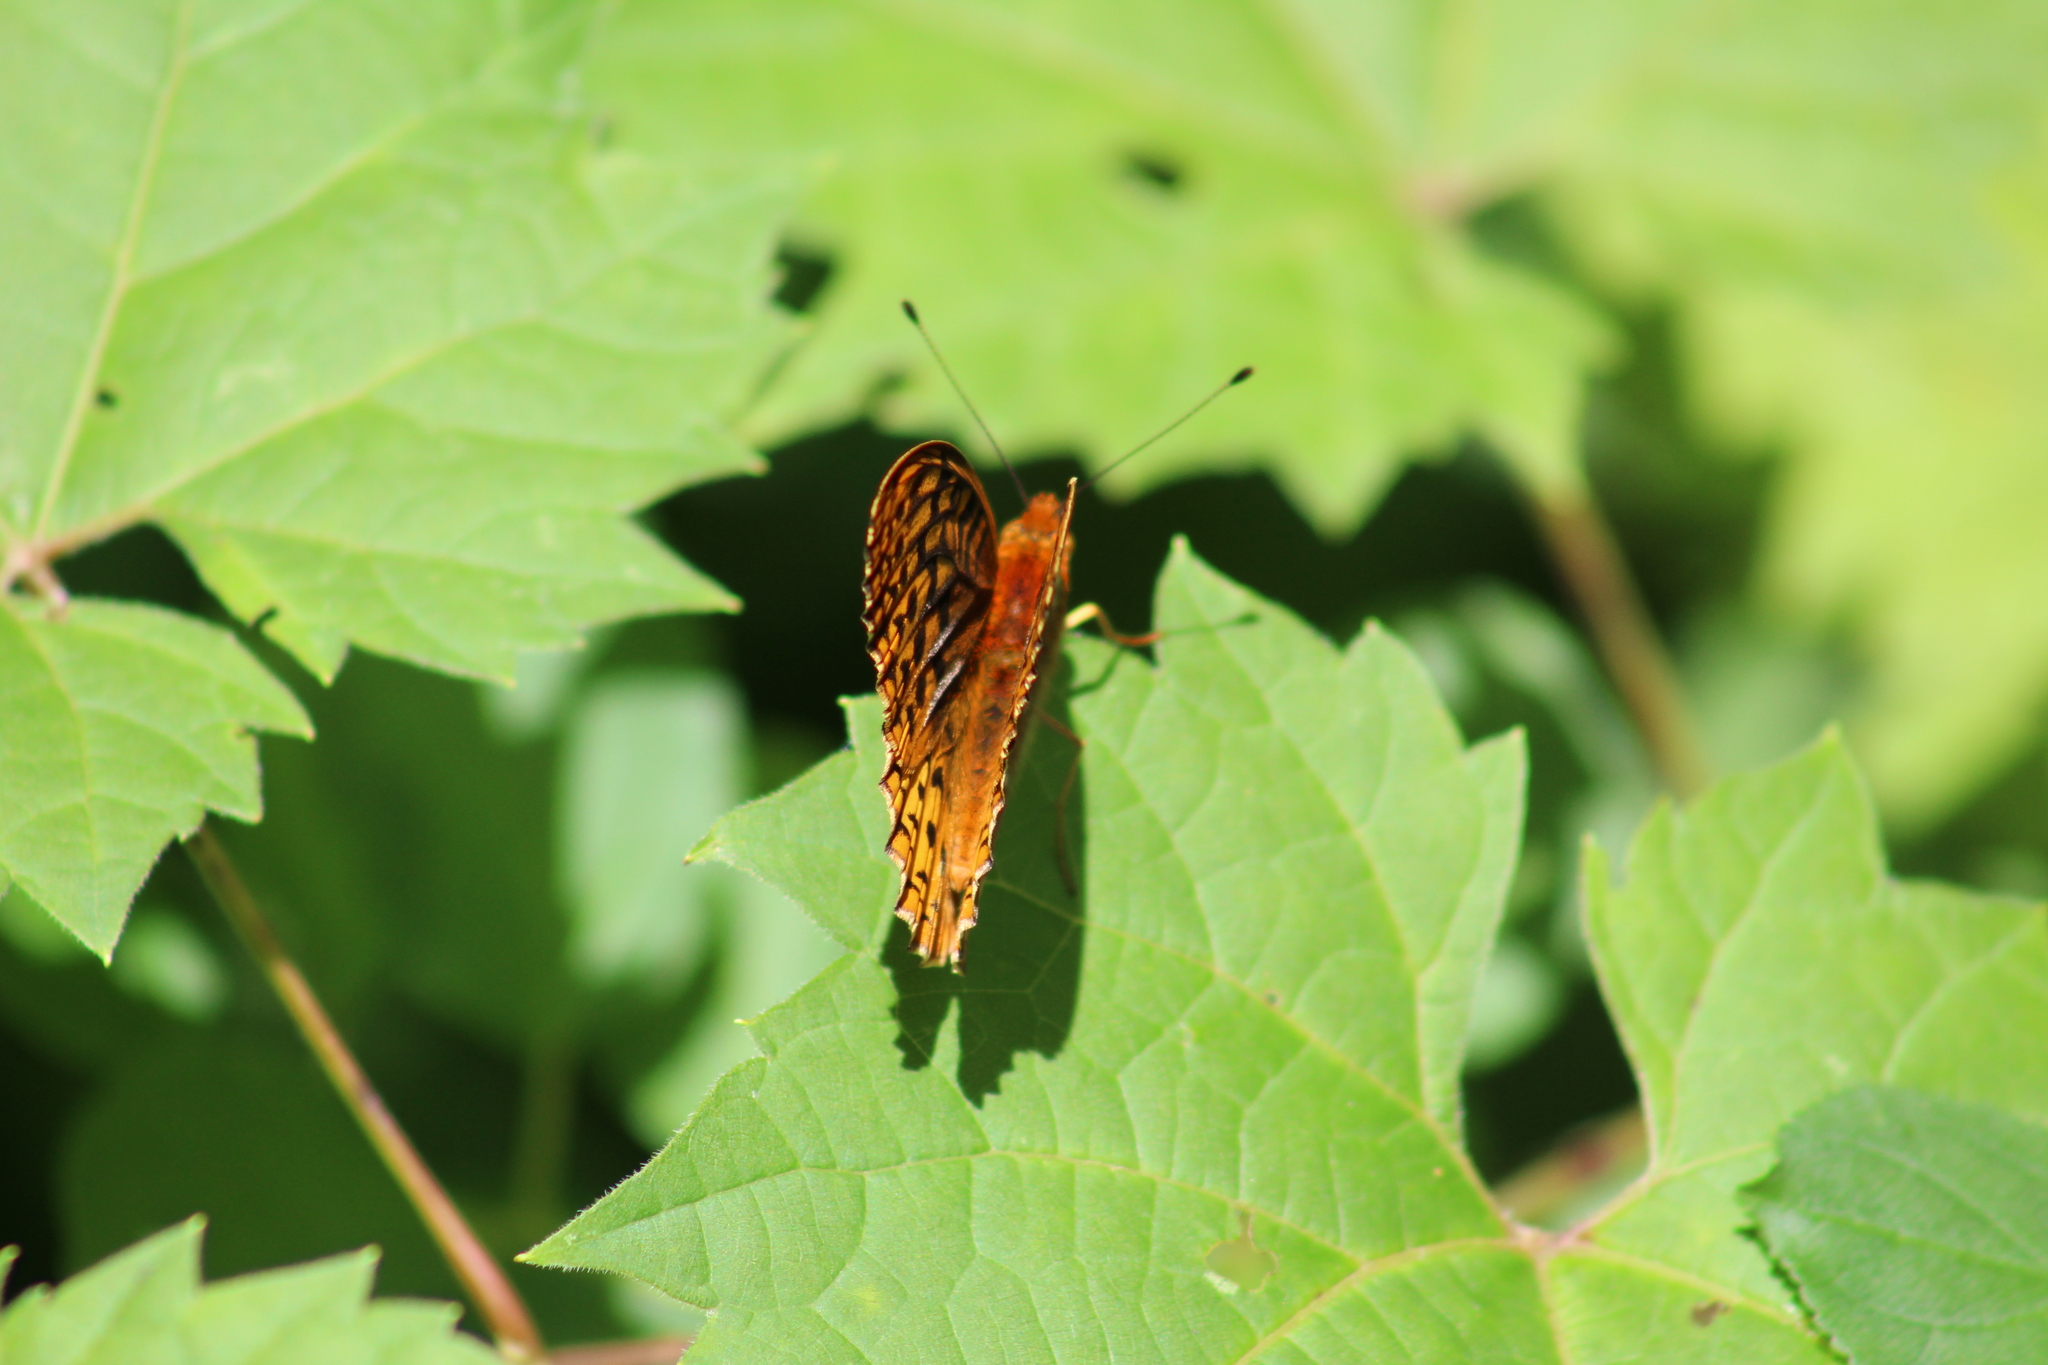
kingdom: Animalia
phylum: Arthropoda
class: Insecta
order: Lepidoptera
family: Nymphalidae
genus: Speyeria
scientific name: Speyeria cybele
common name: Great spangled fritillary
